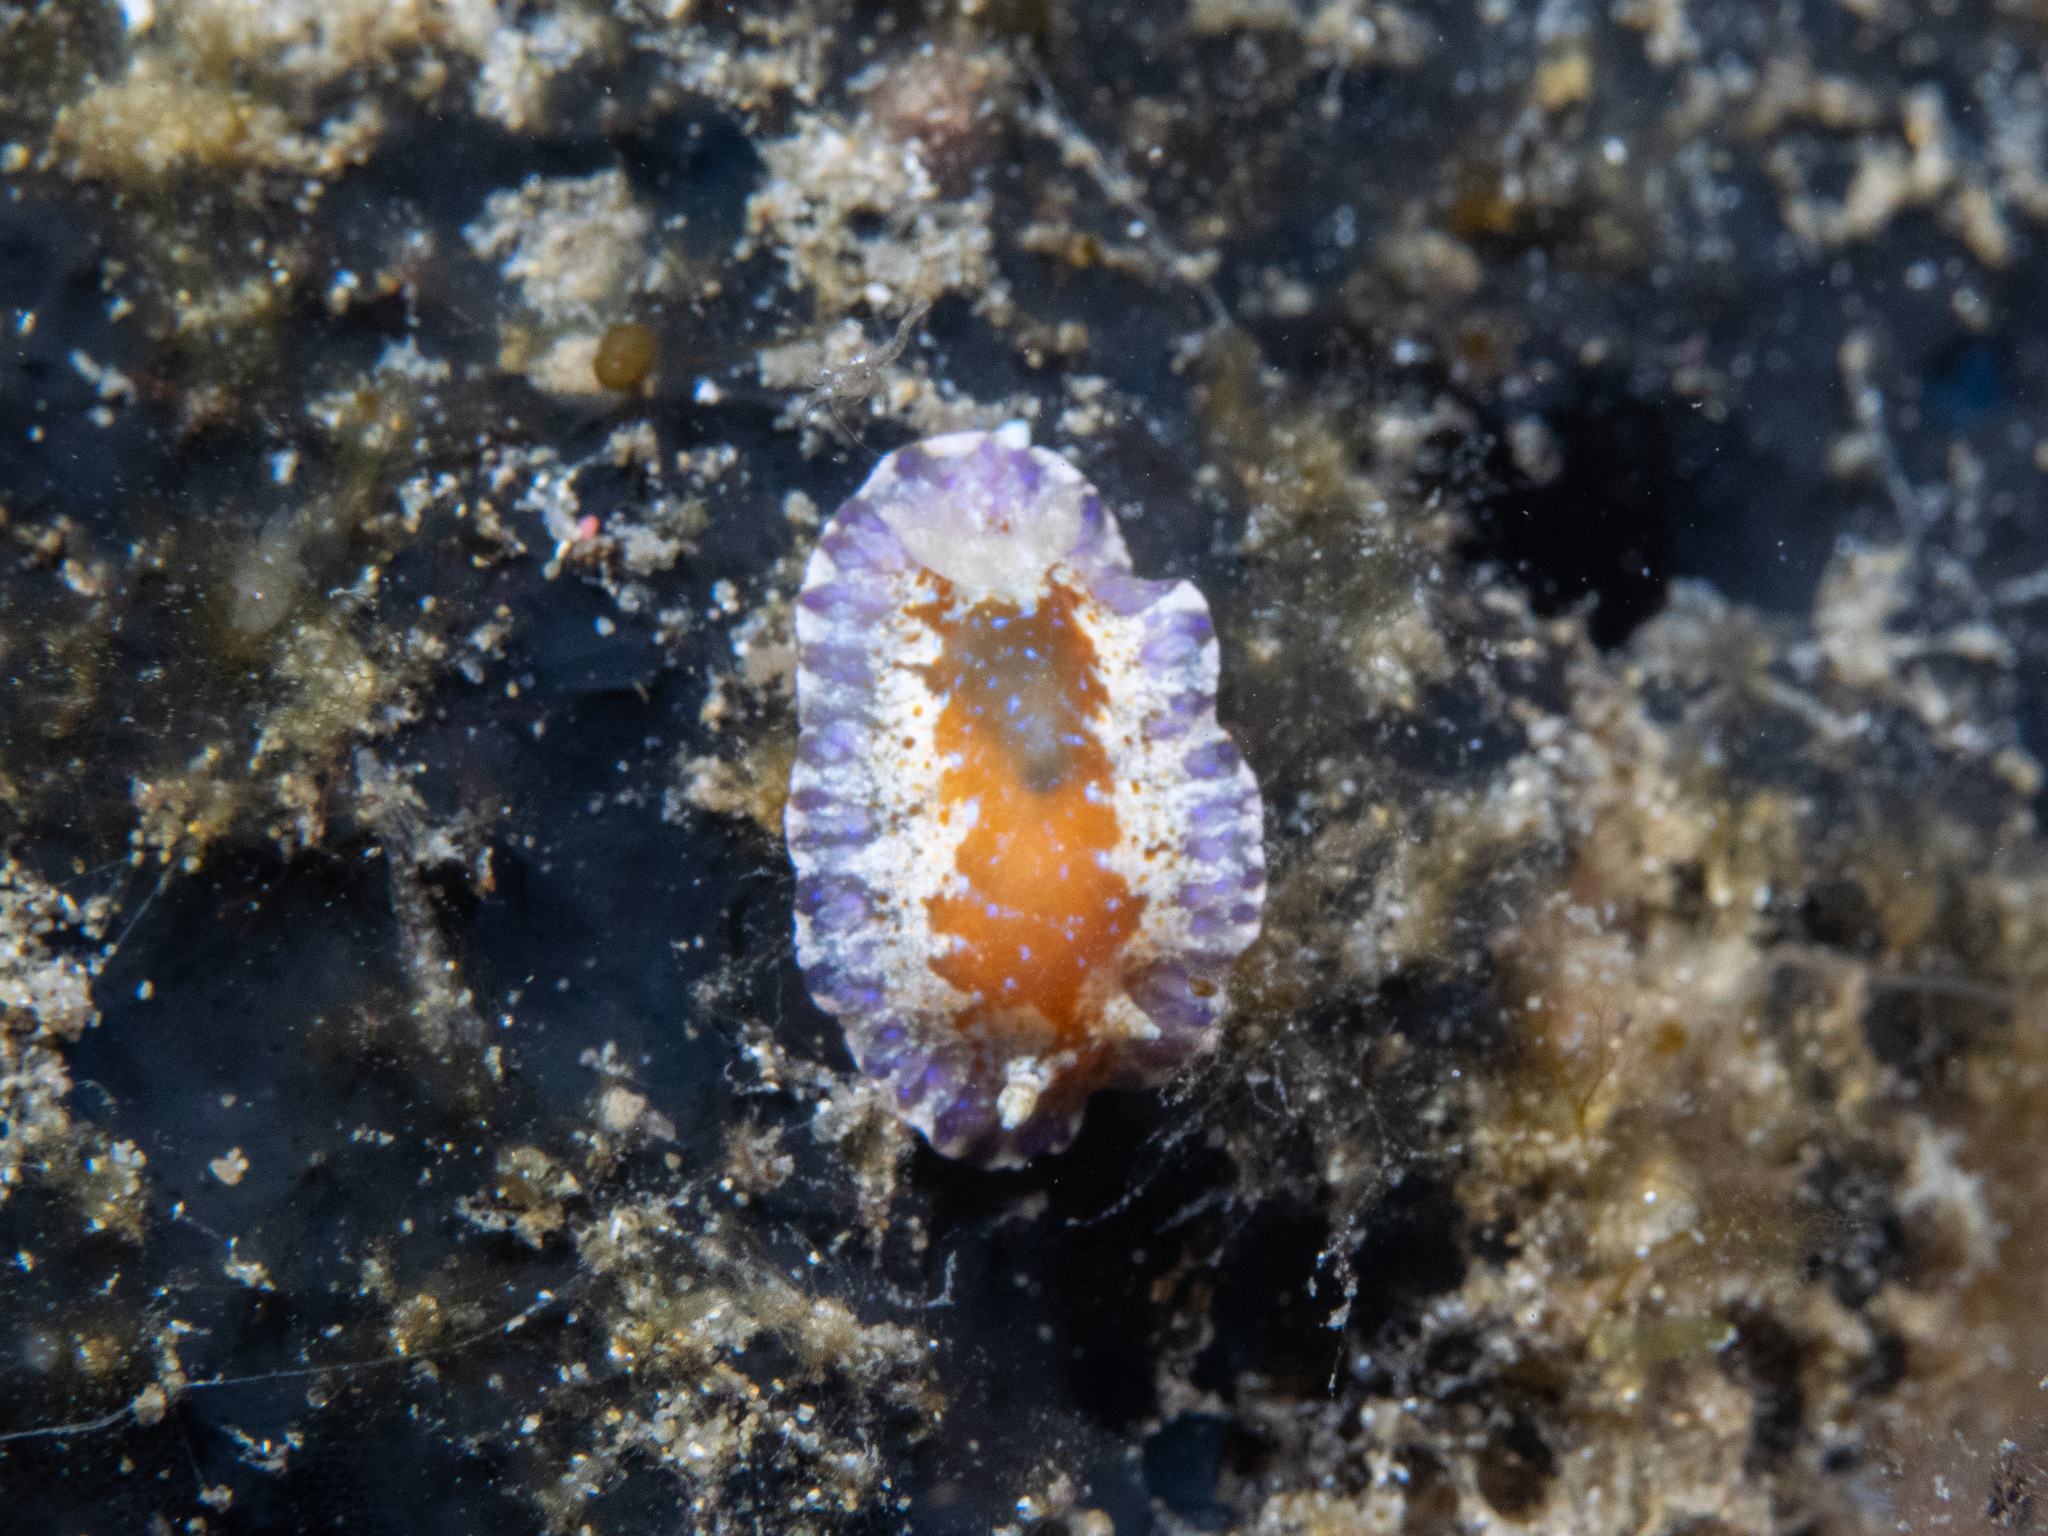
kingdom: Animalia
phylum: Mollusca
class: Gastropoda
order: Nudibranchia
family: Chromodorididae
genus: Chromodoris
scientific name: Chromodoris alternata
